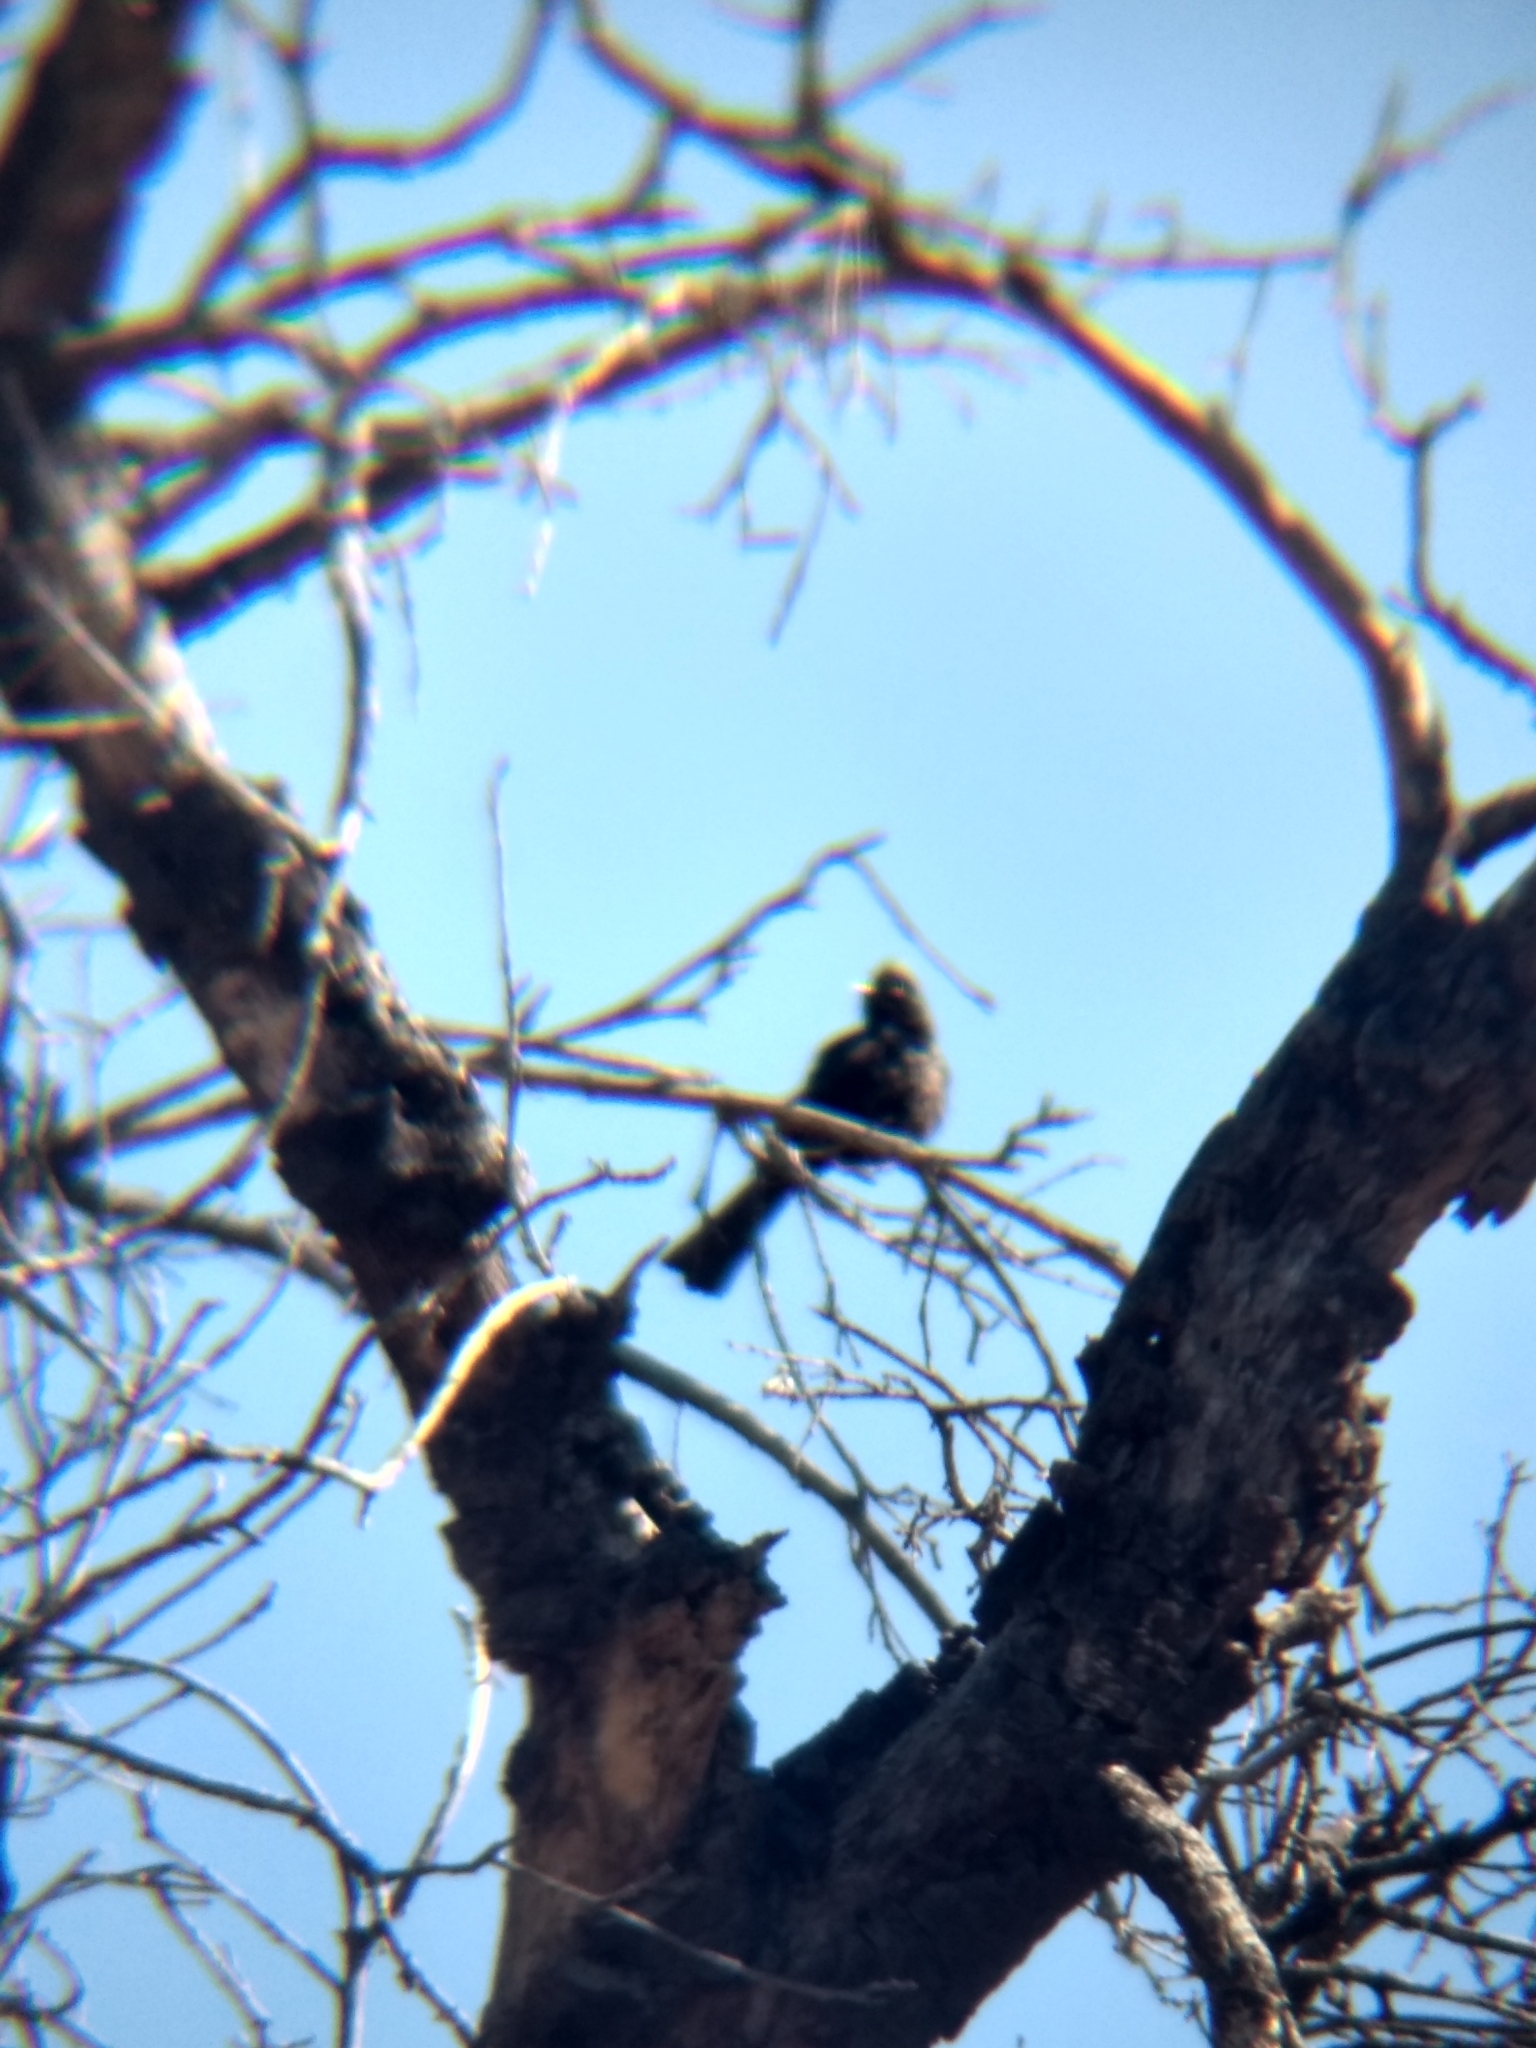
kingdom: Animalia
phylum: Chordata
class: Aves
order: Passeriformes
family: Ptilogonatidae
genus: Phainopepla
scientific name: Phainopepla nitens
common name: Phainopepla
